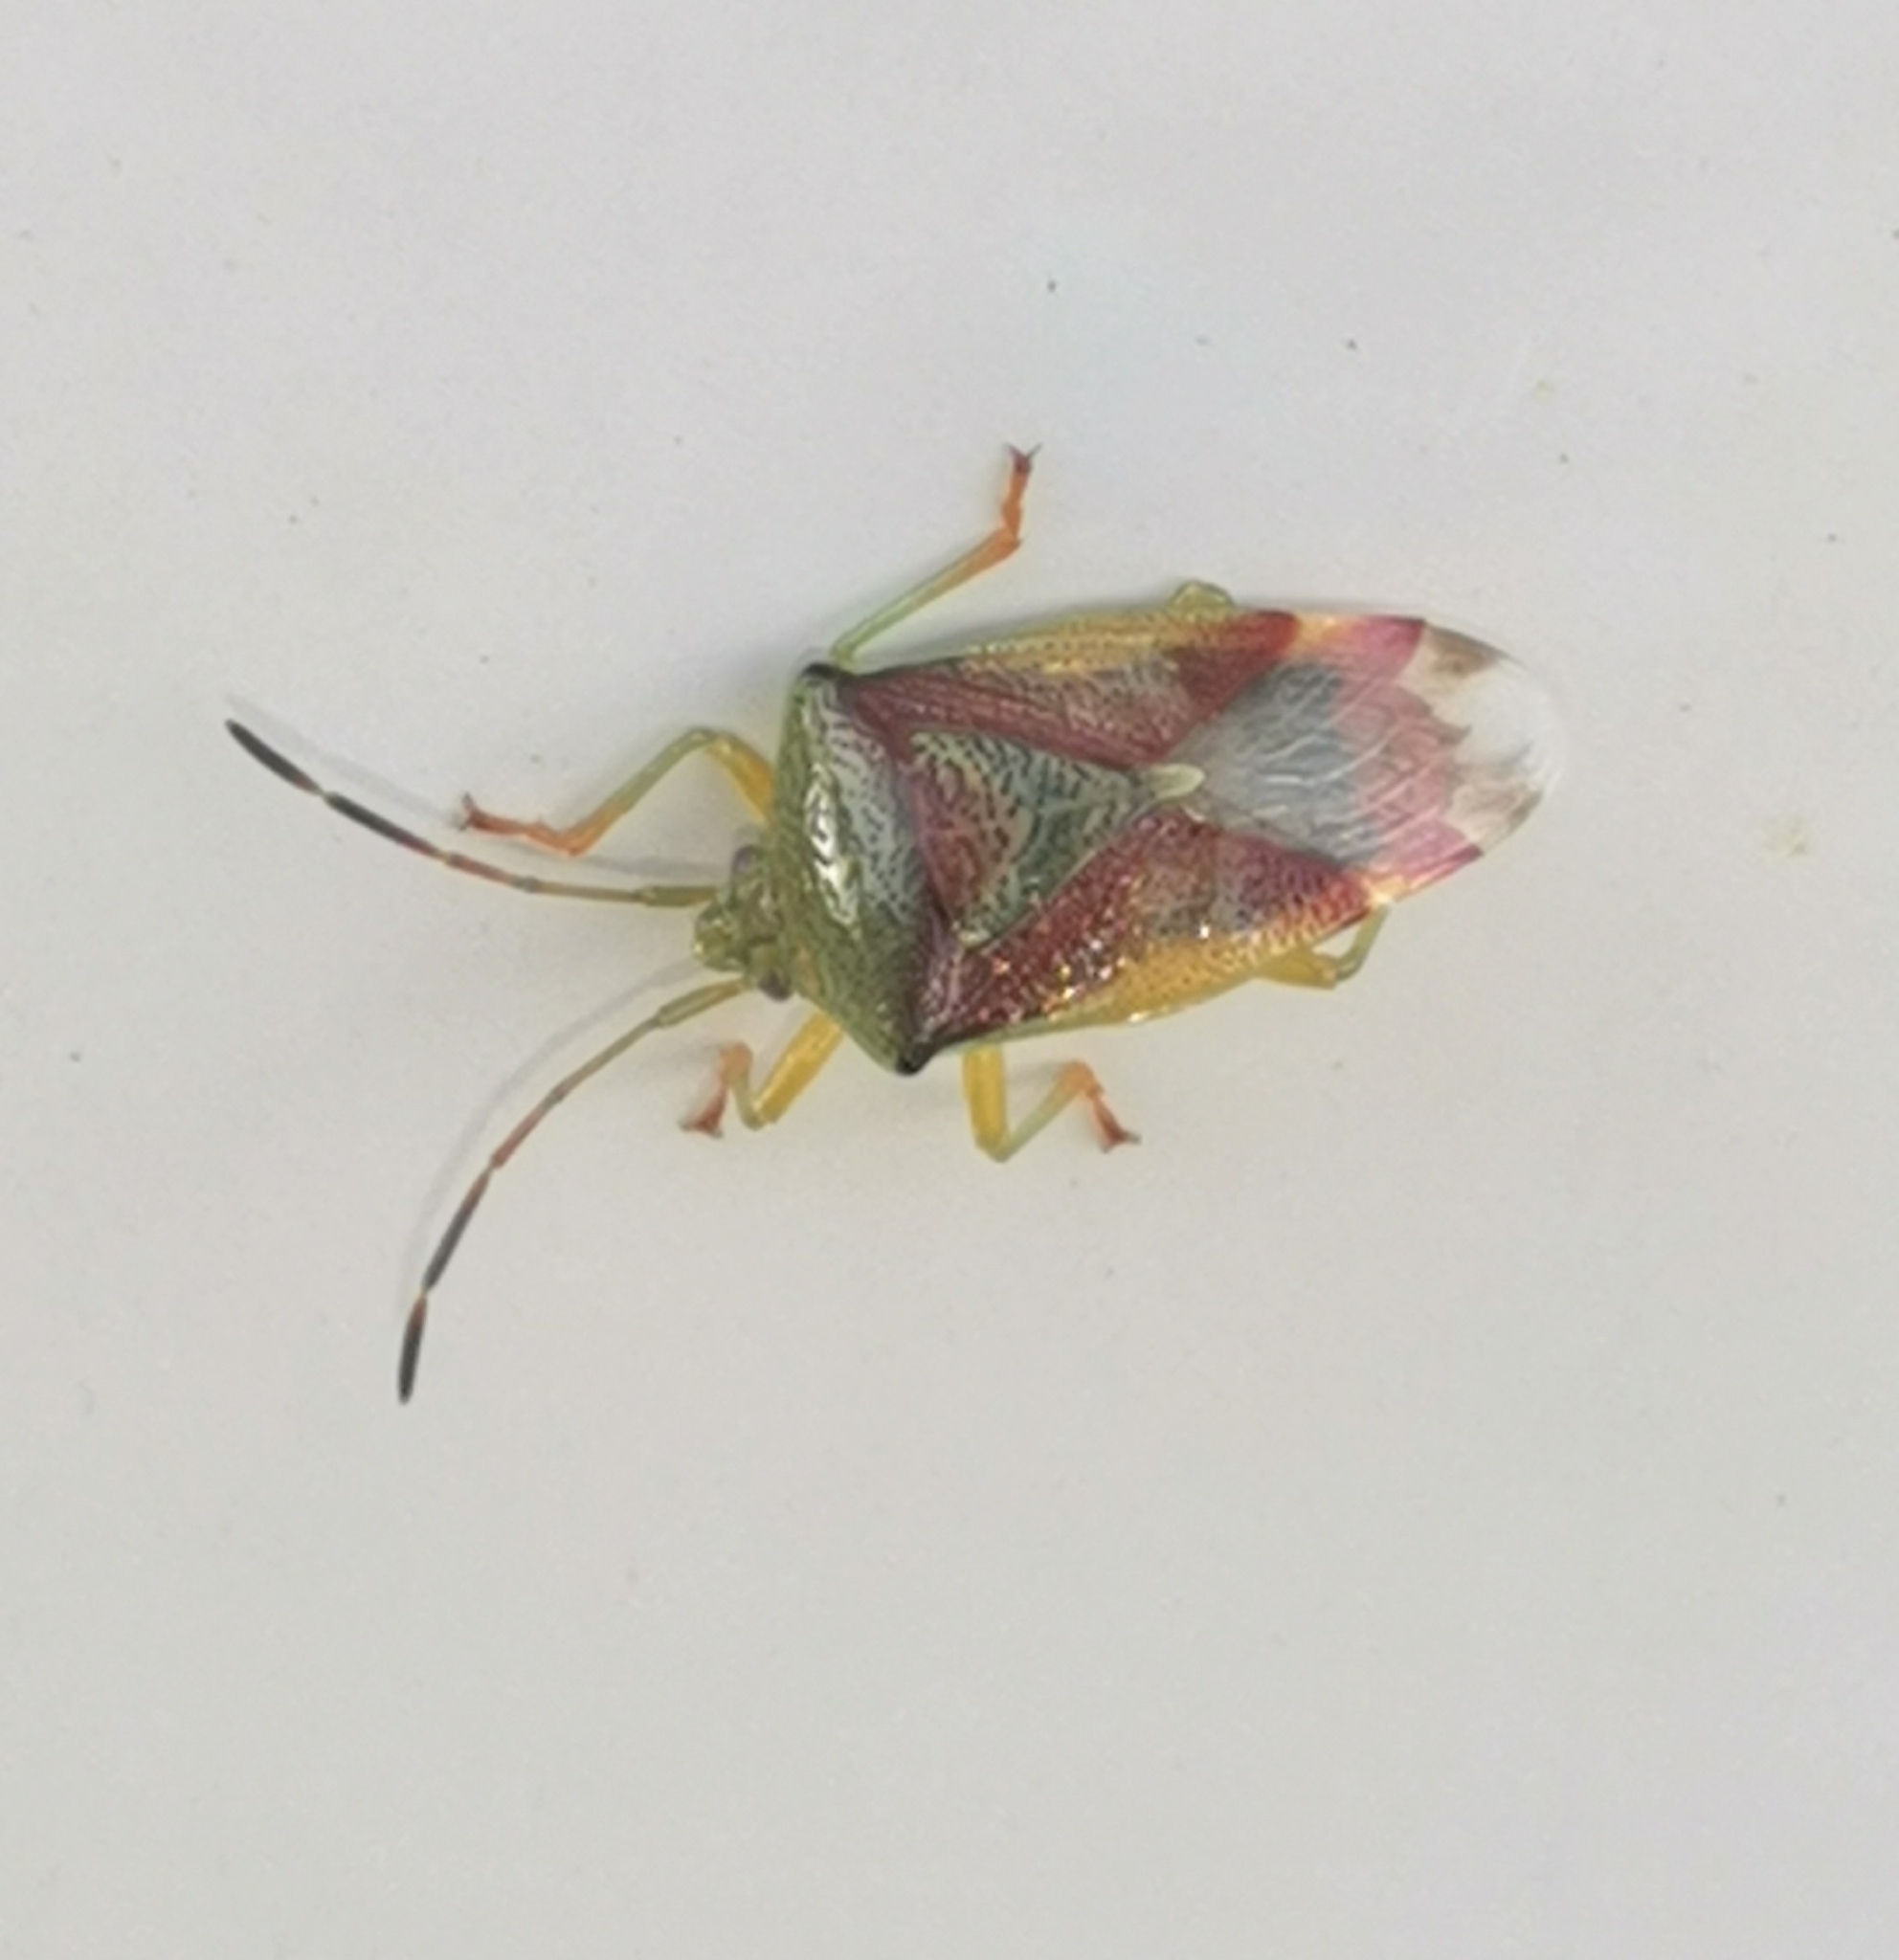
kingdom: Animalia
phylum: Arthropoda
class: Insecta
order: Hemiptera
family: Acanthosomatidae
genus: Elasmostethus
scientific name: Elasmostethus interstinctus
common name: Birch shieldbug
